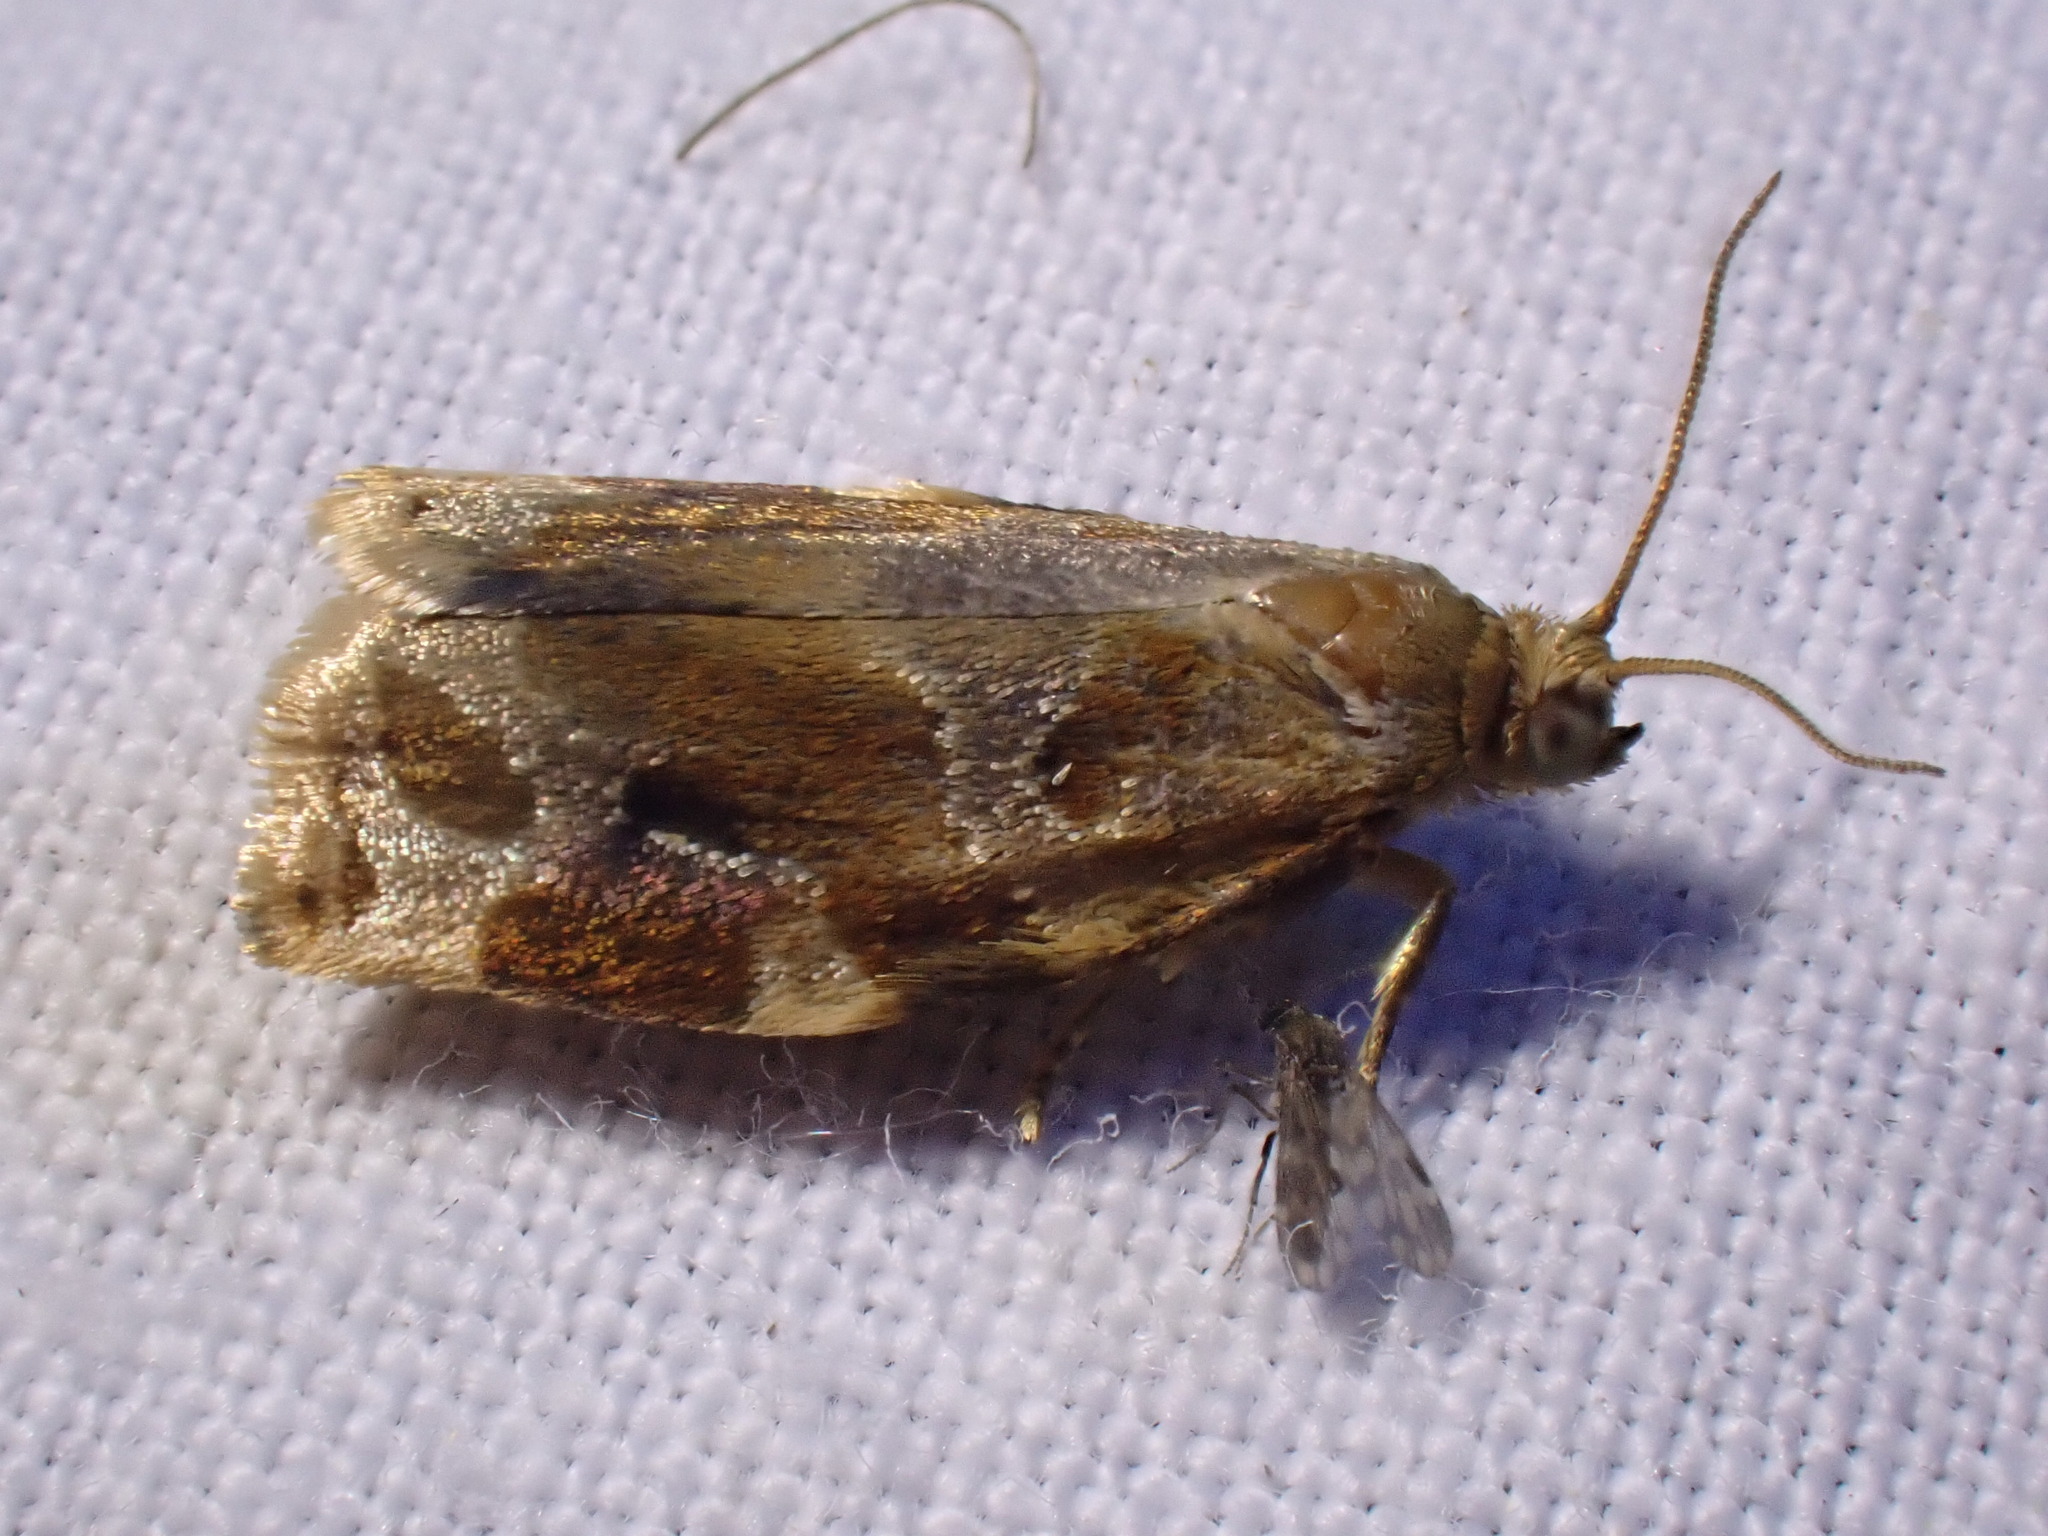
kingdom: Animalia
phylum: Arthropoda
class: Insecta
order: Lepidoptera
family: Tortricidae
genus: Archips
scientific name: Archips xylosteana
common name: Variegated golden tortrix
